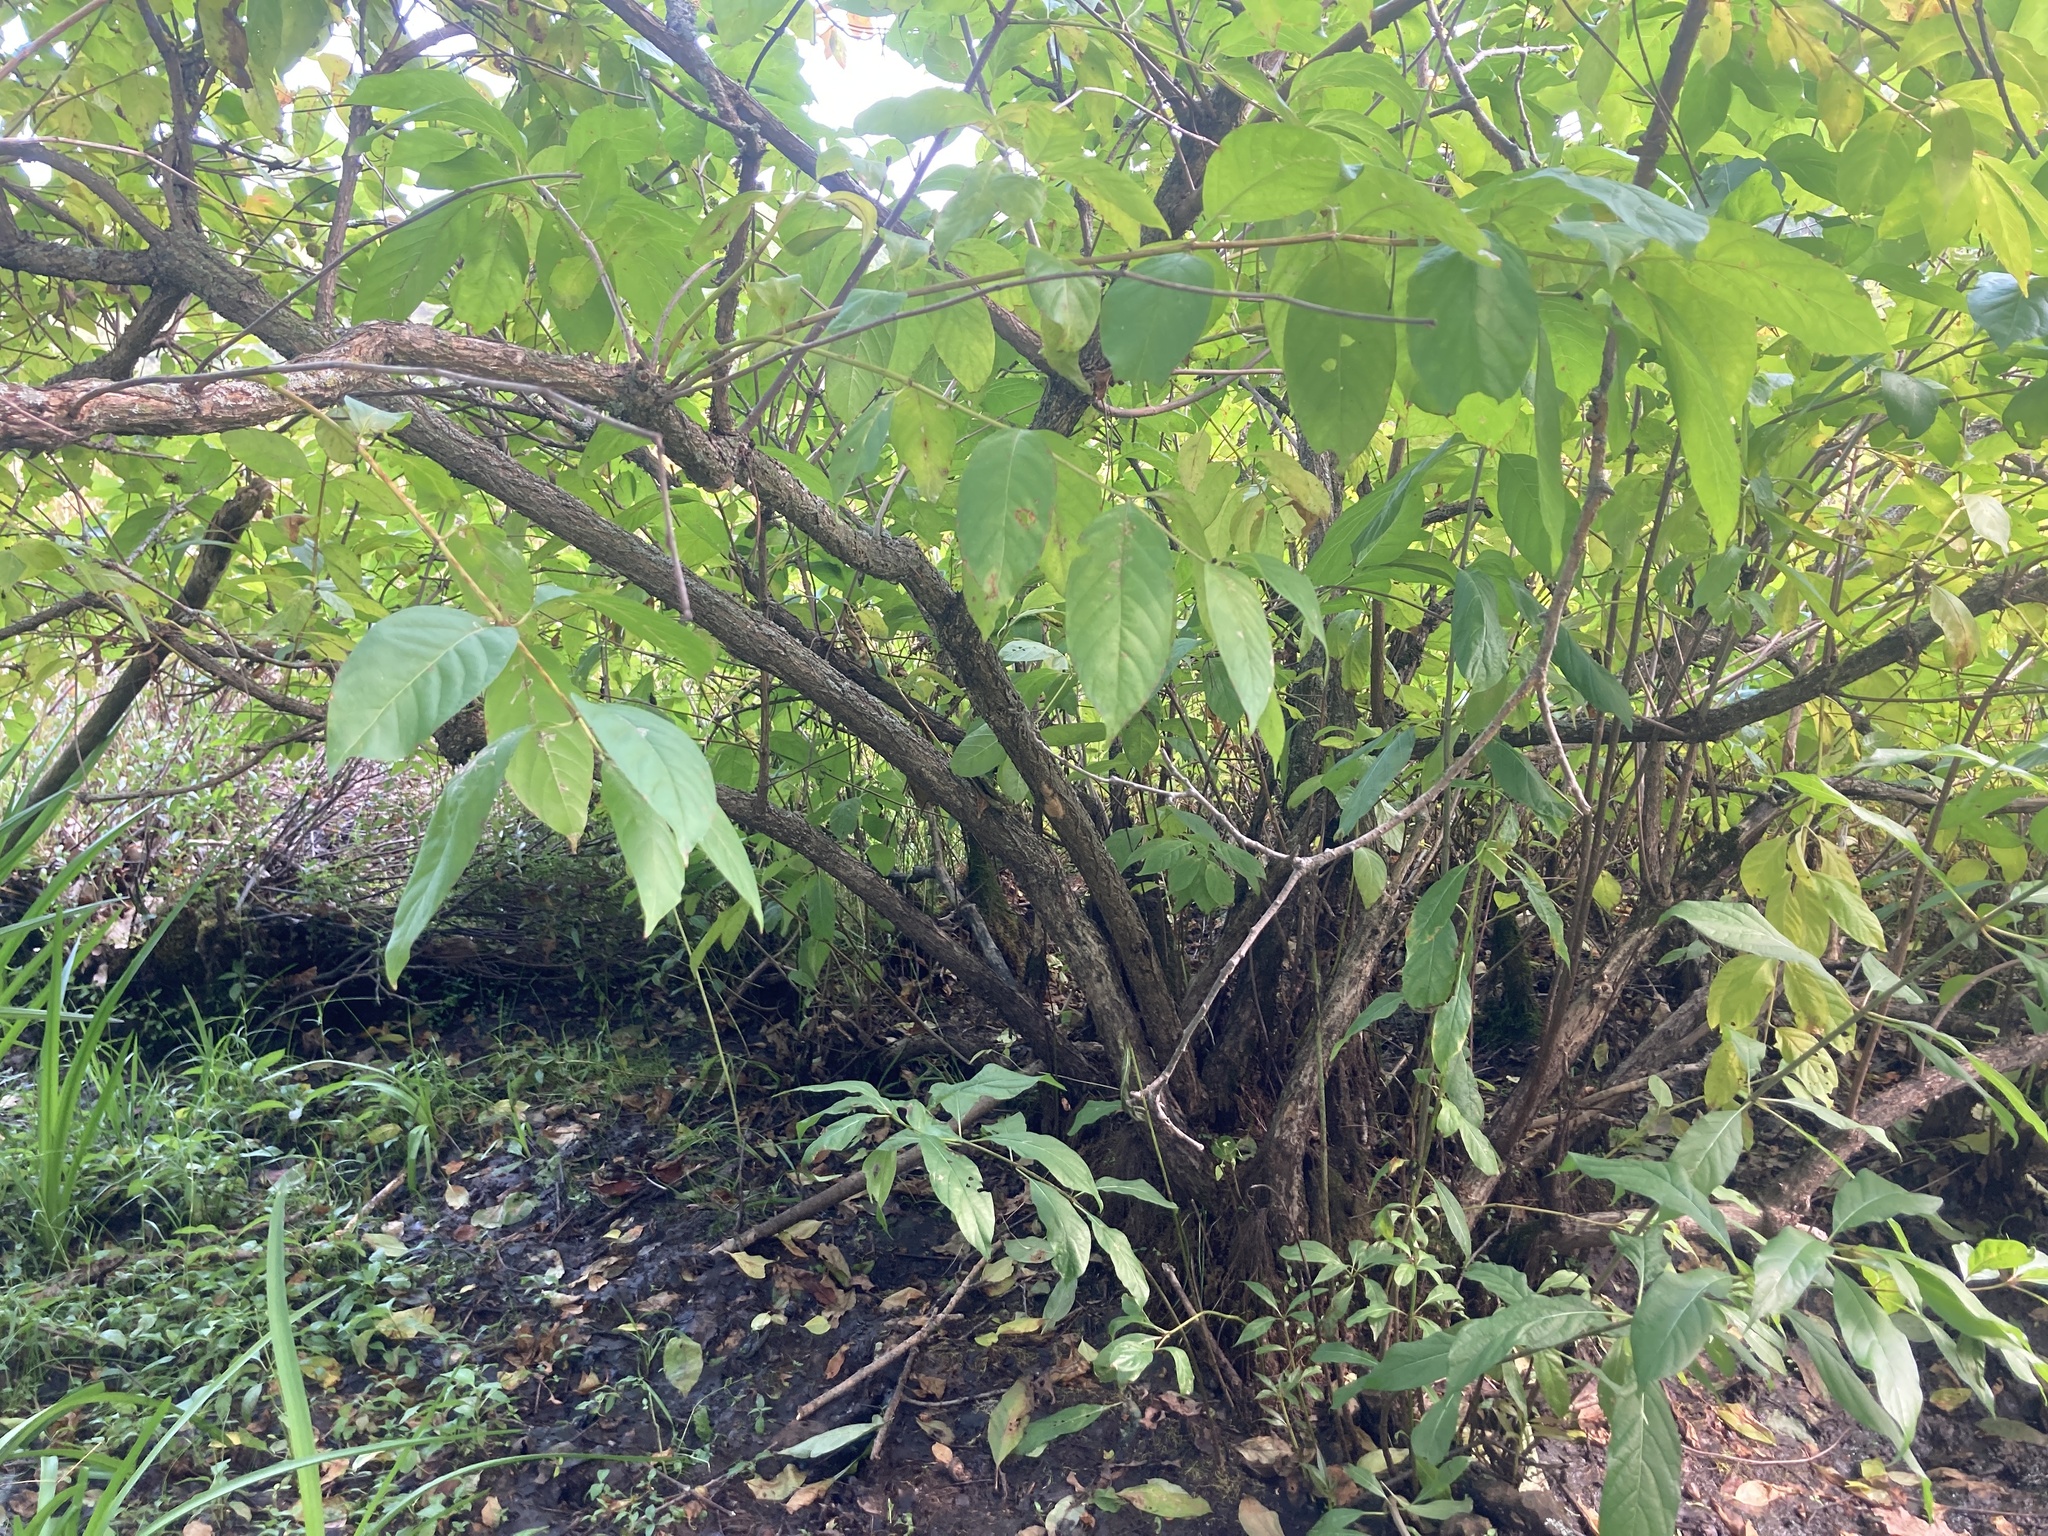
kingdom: Plantae
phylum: Tracheophyta
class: Magnoliopsida
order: Gentianales
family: Rubiaceae
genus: Cephalanthus
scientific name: Cephalanthus occidentalis
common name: Button-willow
